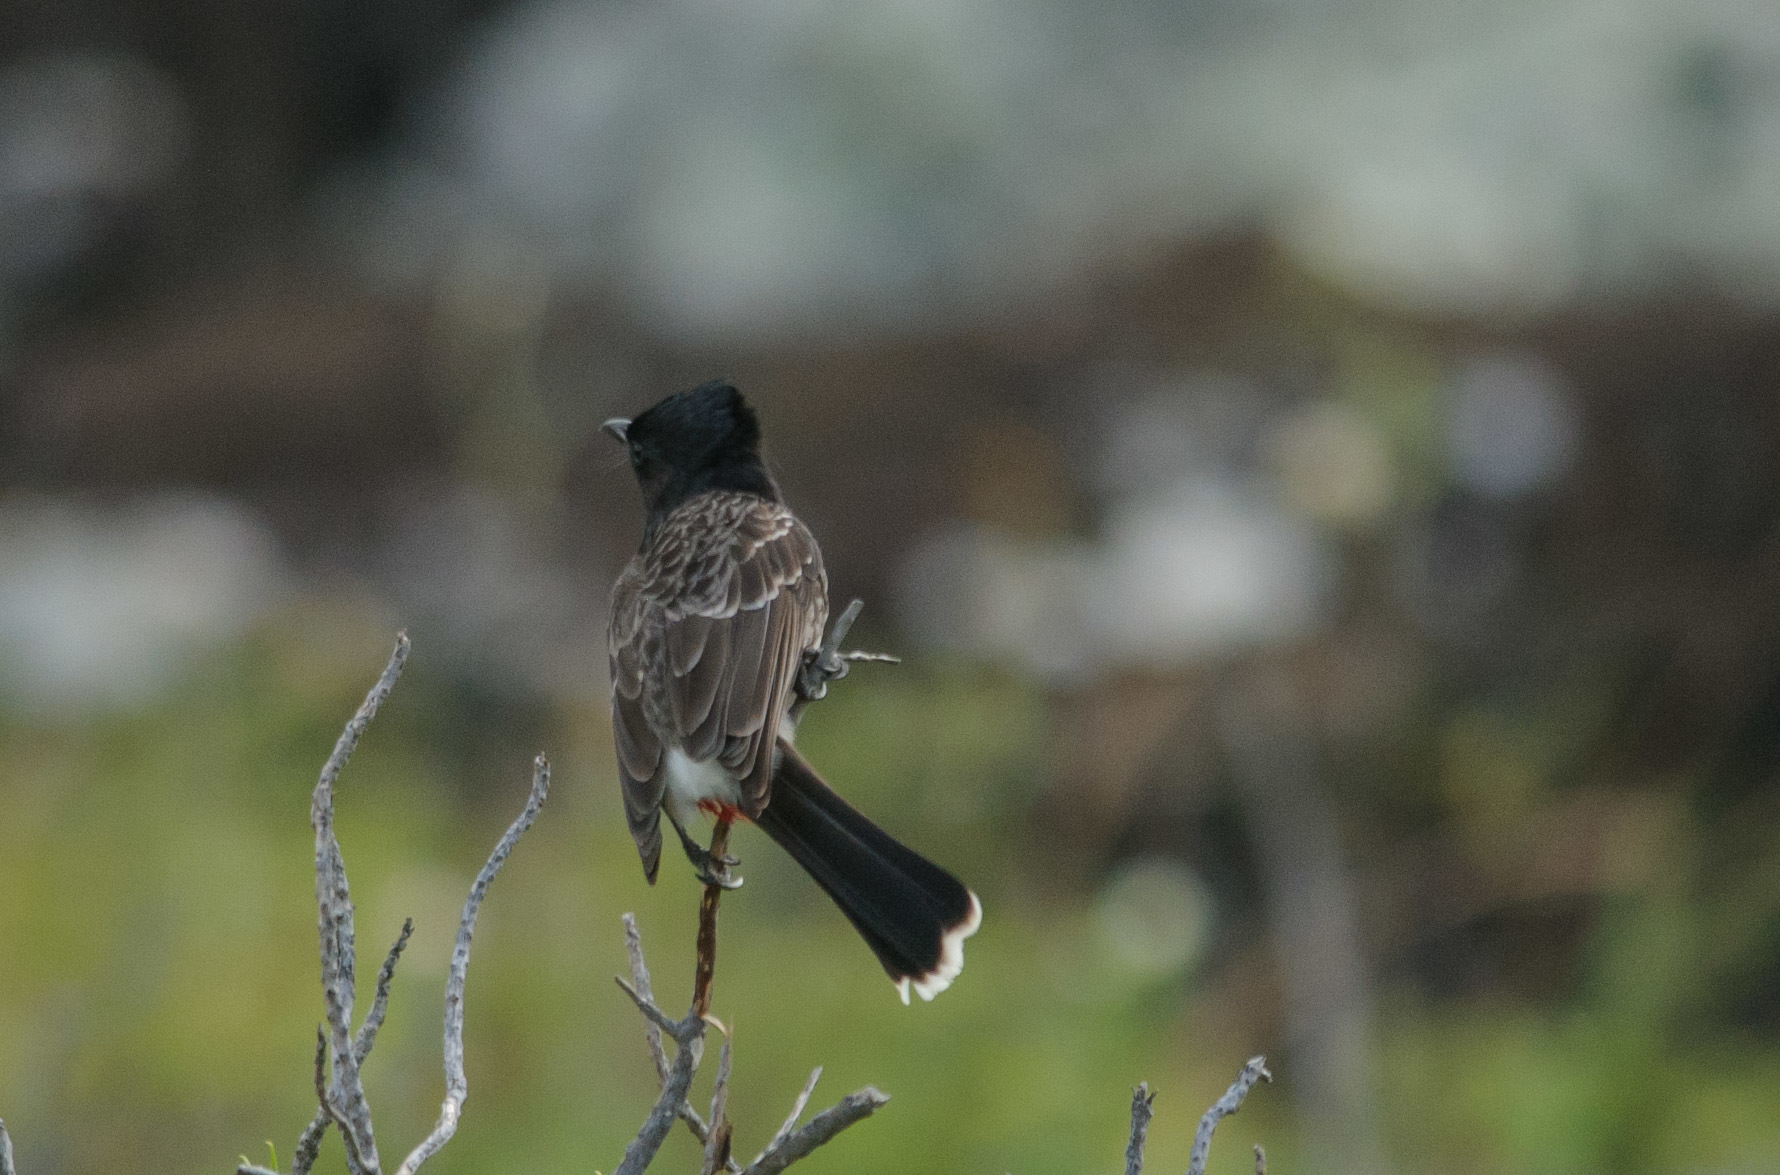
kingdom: Animalia
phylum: Chordata
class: Aves
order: Passeriformes
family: Pycnonotidae
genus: Pycnonotus
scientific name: Pycnonotus cafer
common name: Red-vented bulbul
